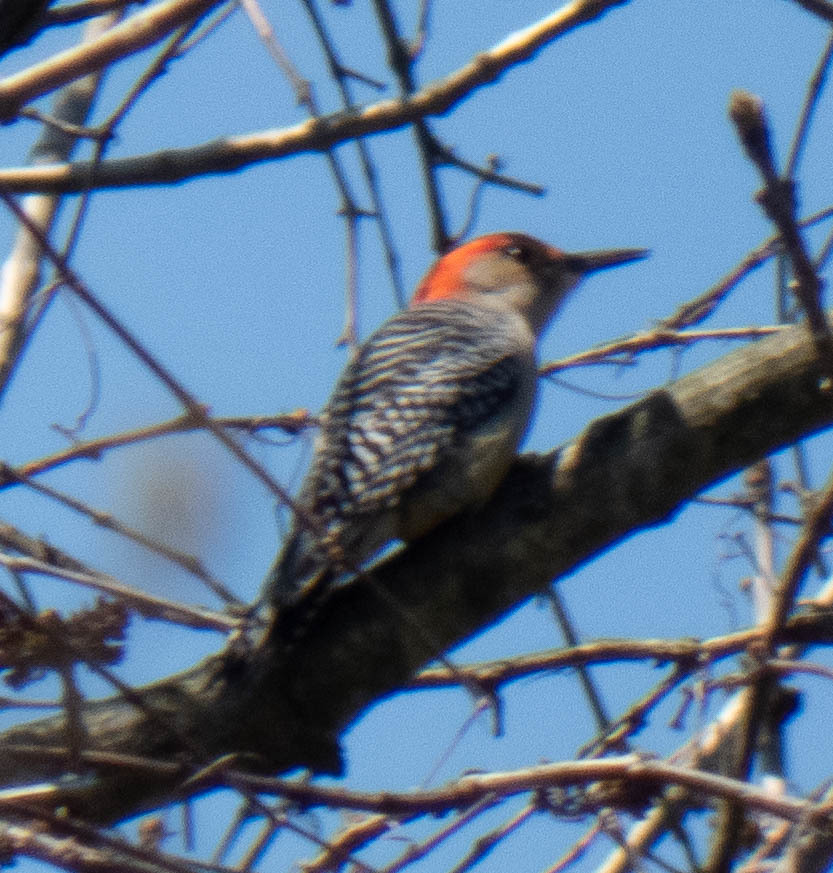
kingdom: Animalia
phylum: Chordata
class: Aves
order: Piciformes
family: Picidae
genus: Melanerpes
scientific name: Melanerpes carolinus
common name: Red-bellied woodpecker
